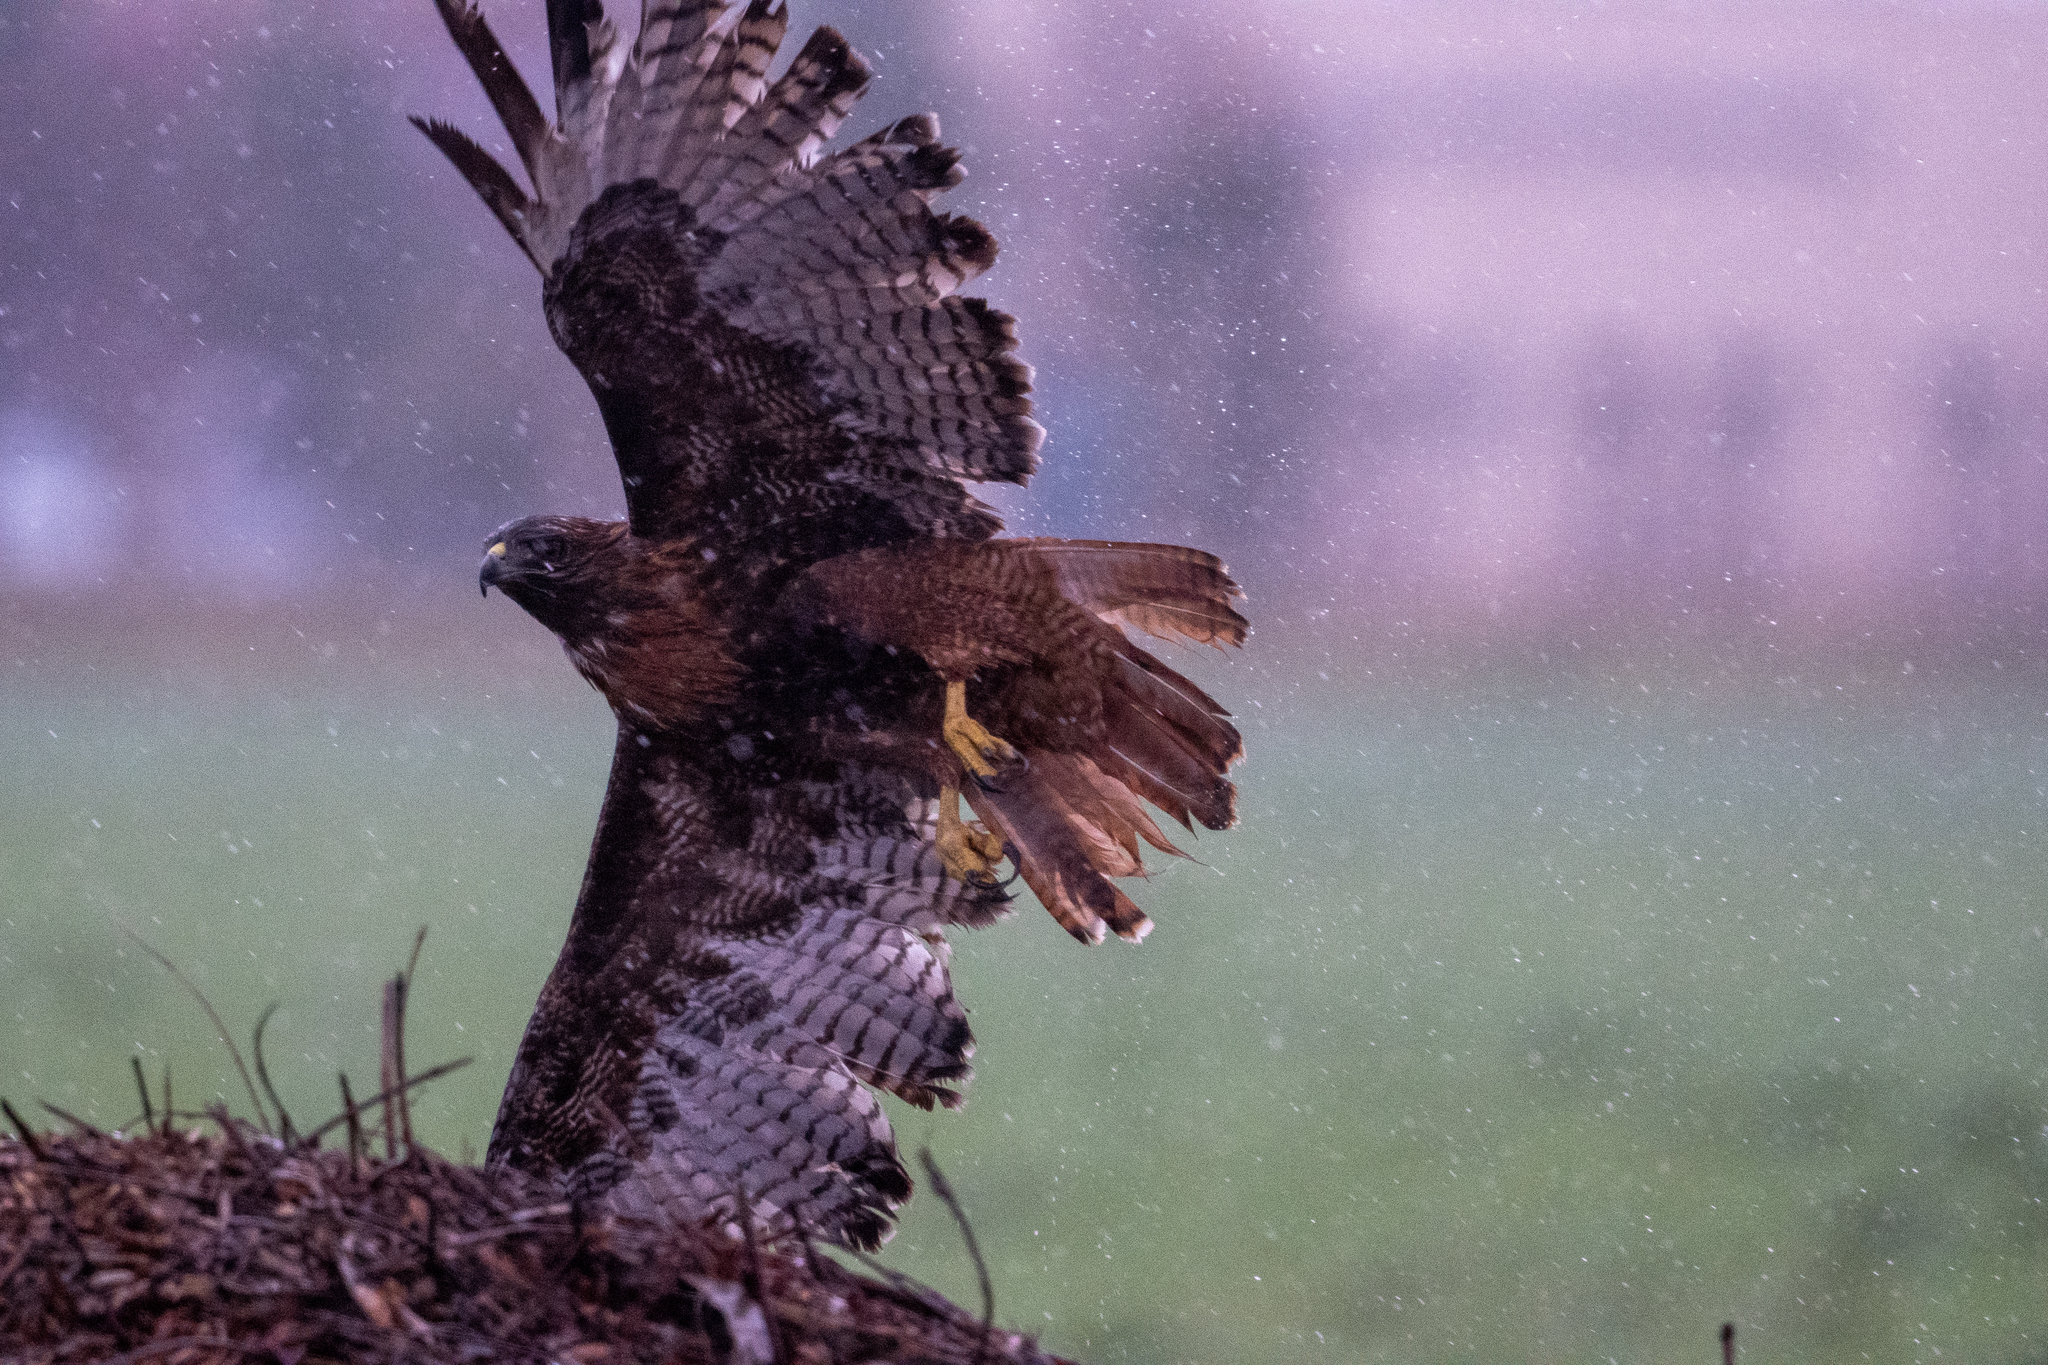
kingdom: Animalia
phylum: Chordata
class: Aves
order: Accipitriformes
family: Accipitridae
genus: Buteo
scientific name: Buteo jamaicensis
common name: Red-tailed hawk
